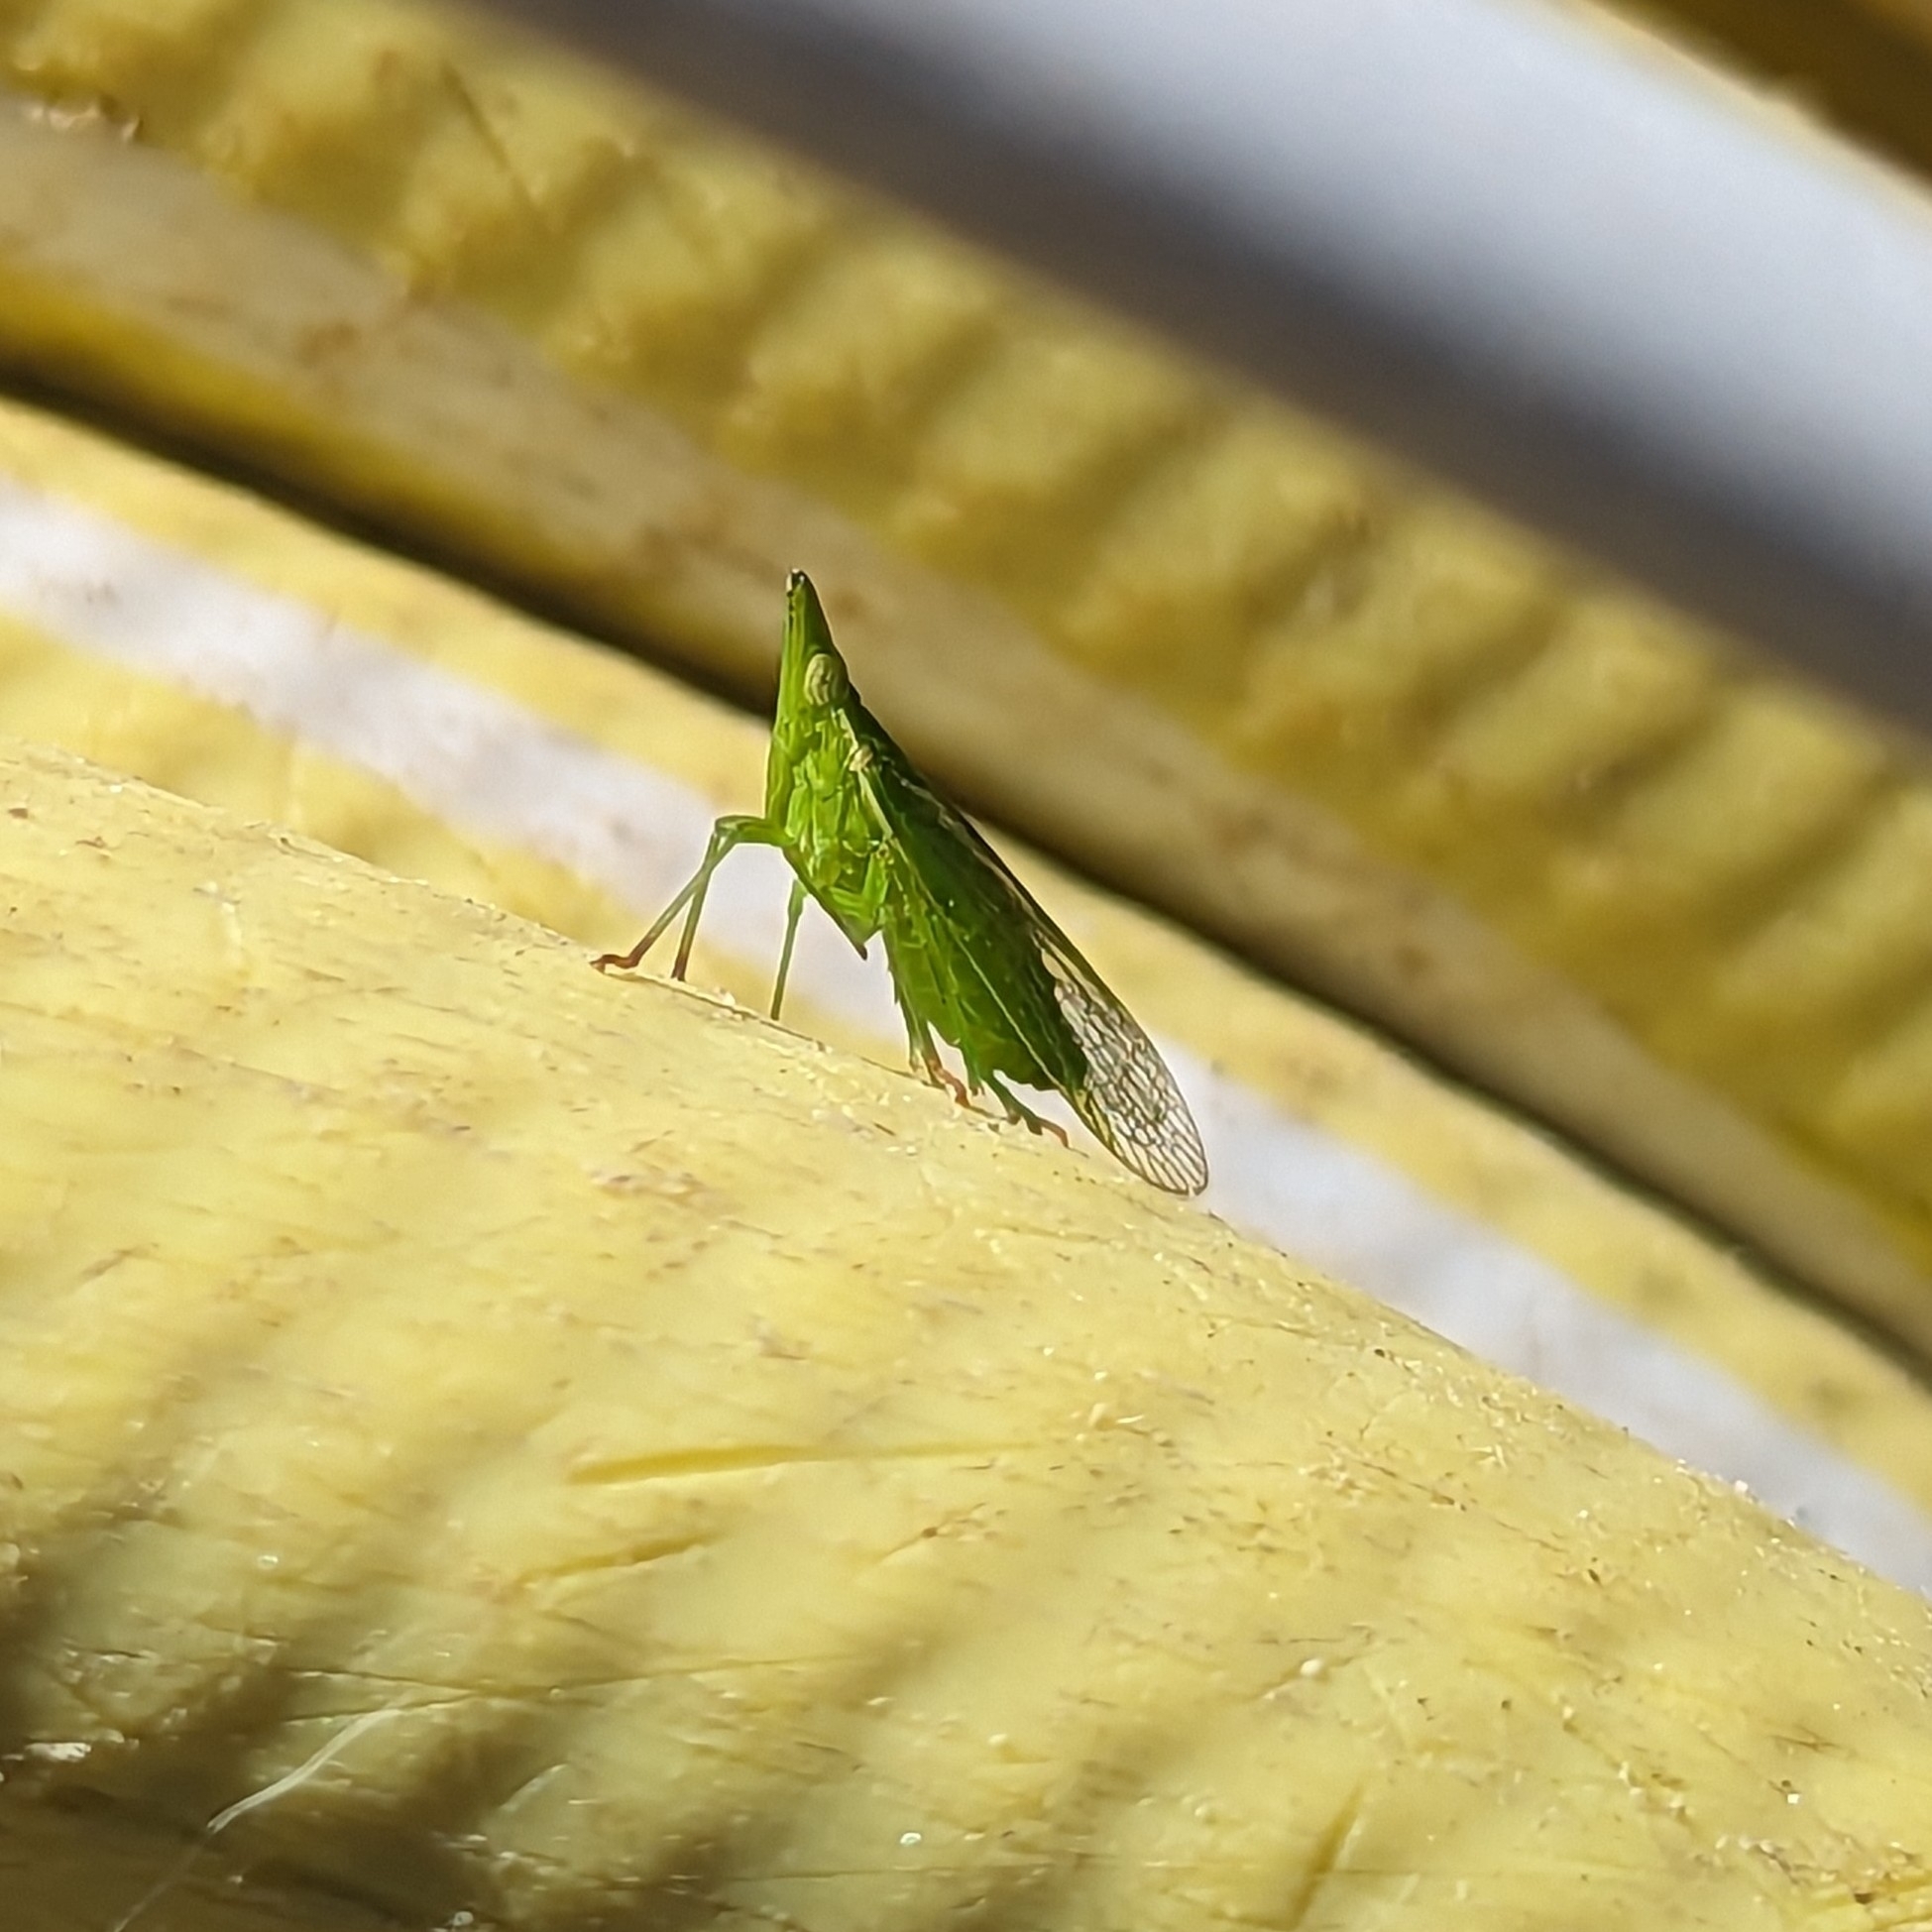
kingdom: Animalia
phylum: Arthropoda
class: Insecta
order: Hemiptera
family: Dictyopharidae
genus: Dictyophara
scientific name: Dictyophara europaea
